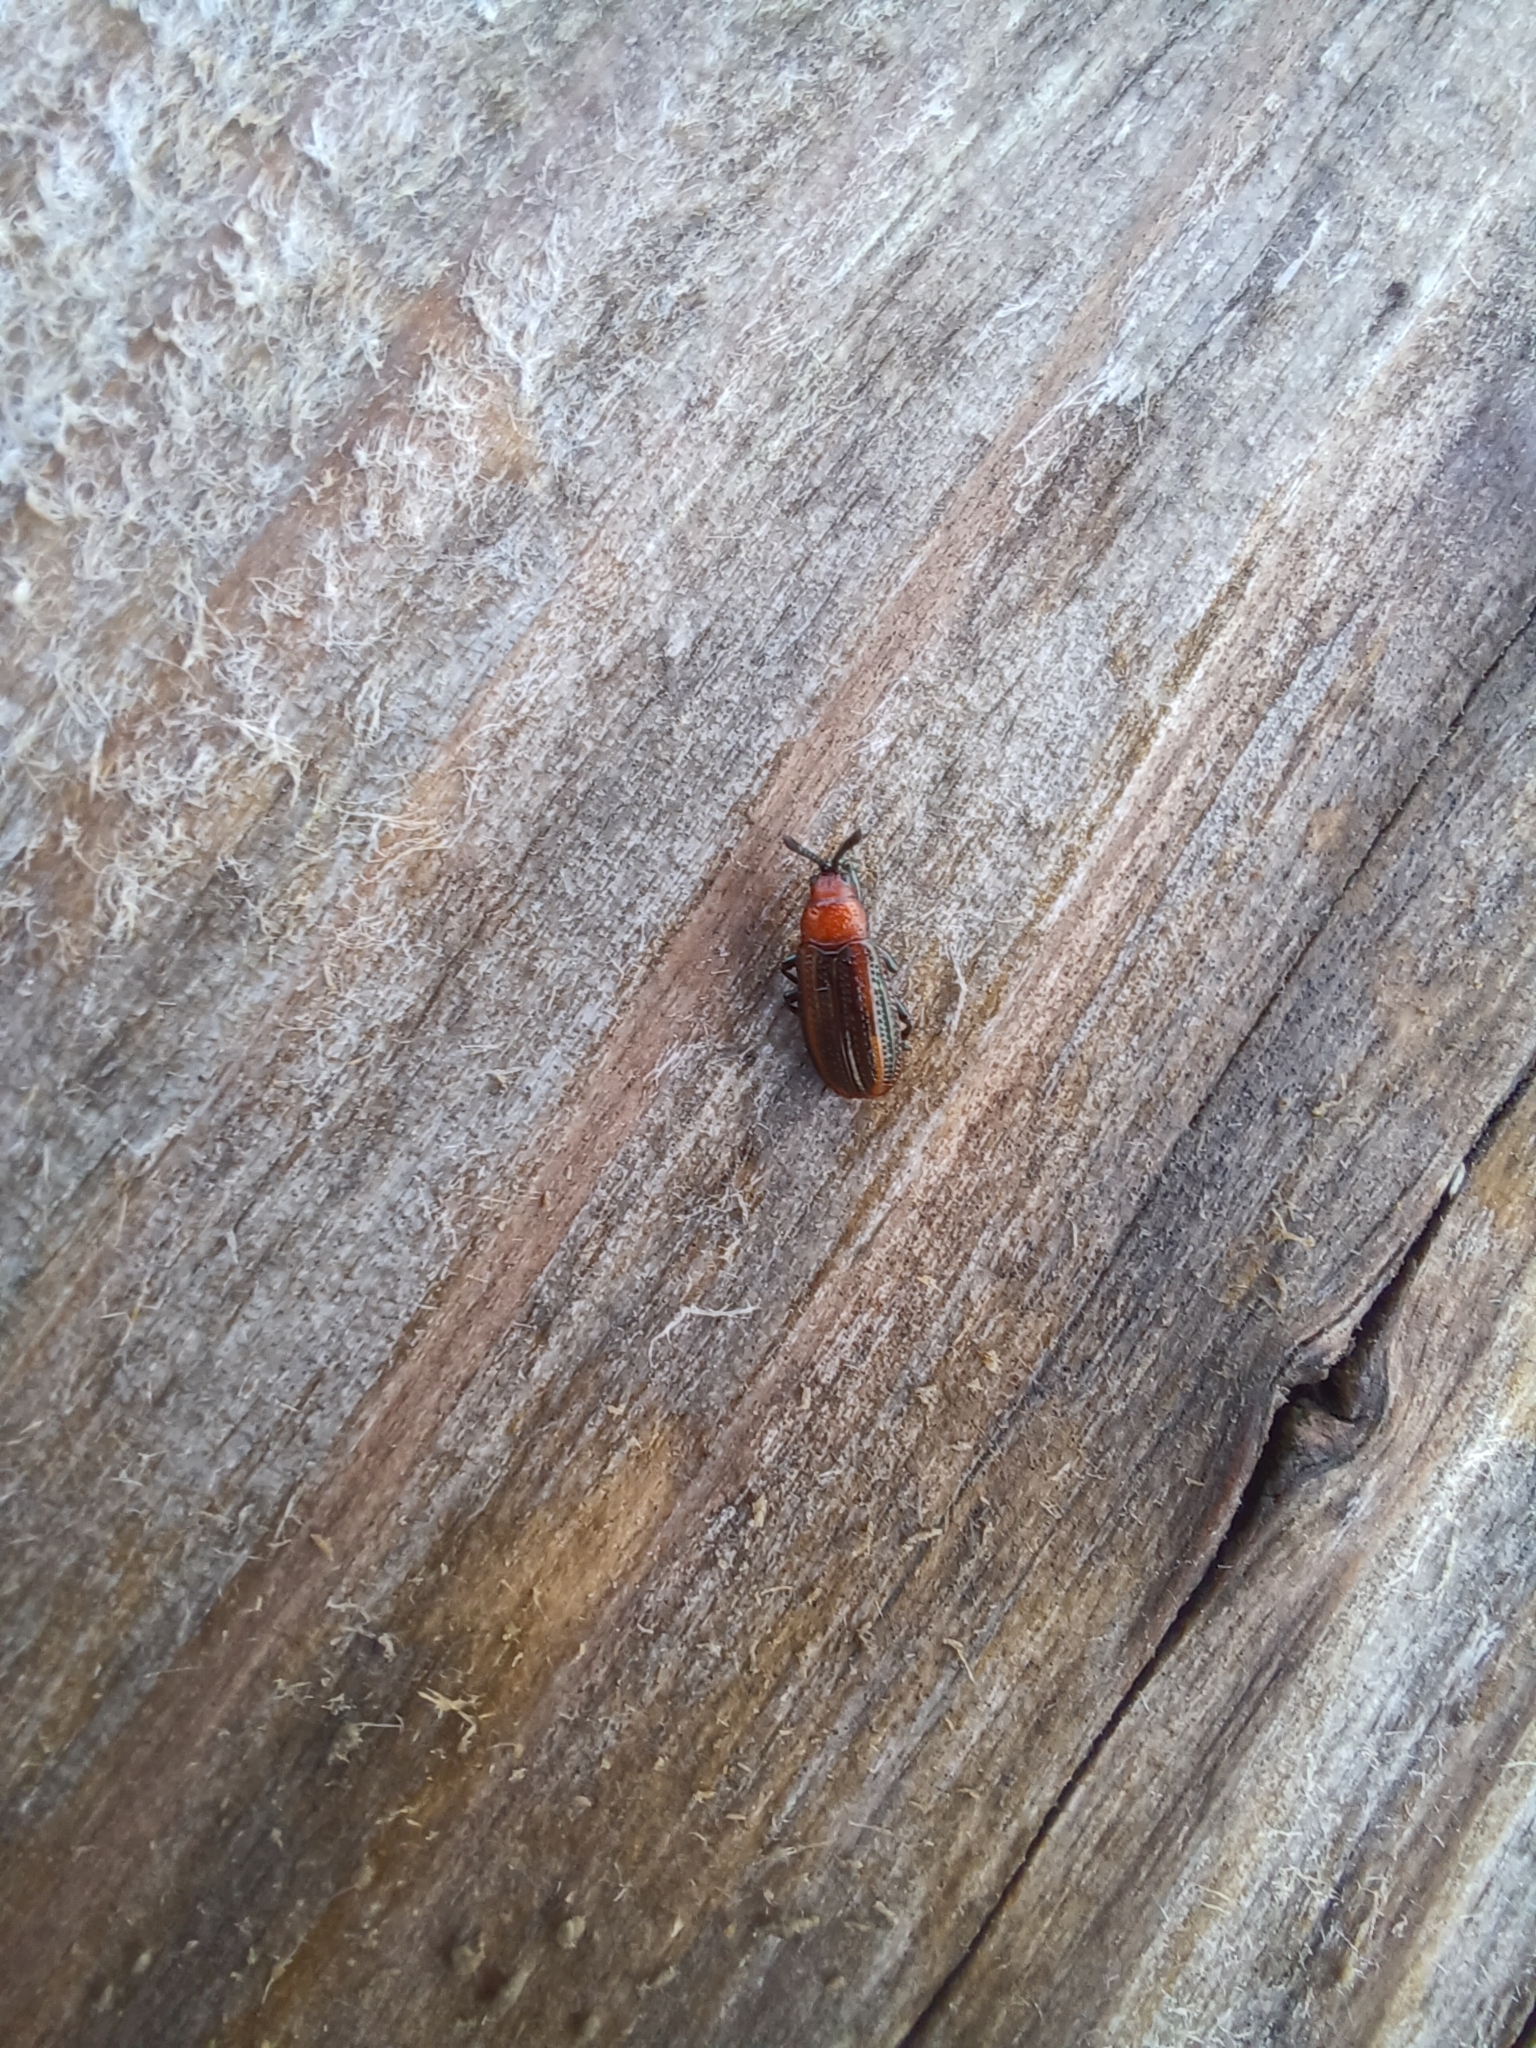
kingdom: Animalia
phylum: Arthropoda
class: Insecta
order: Coleoptera
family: Chrysomelidae
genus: Microrhopala
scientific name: Microrhopala vittata
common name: Goldenrod leaf miner beetle
